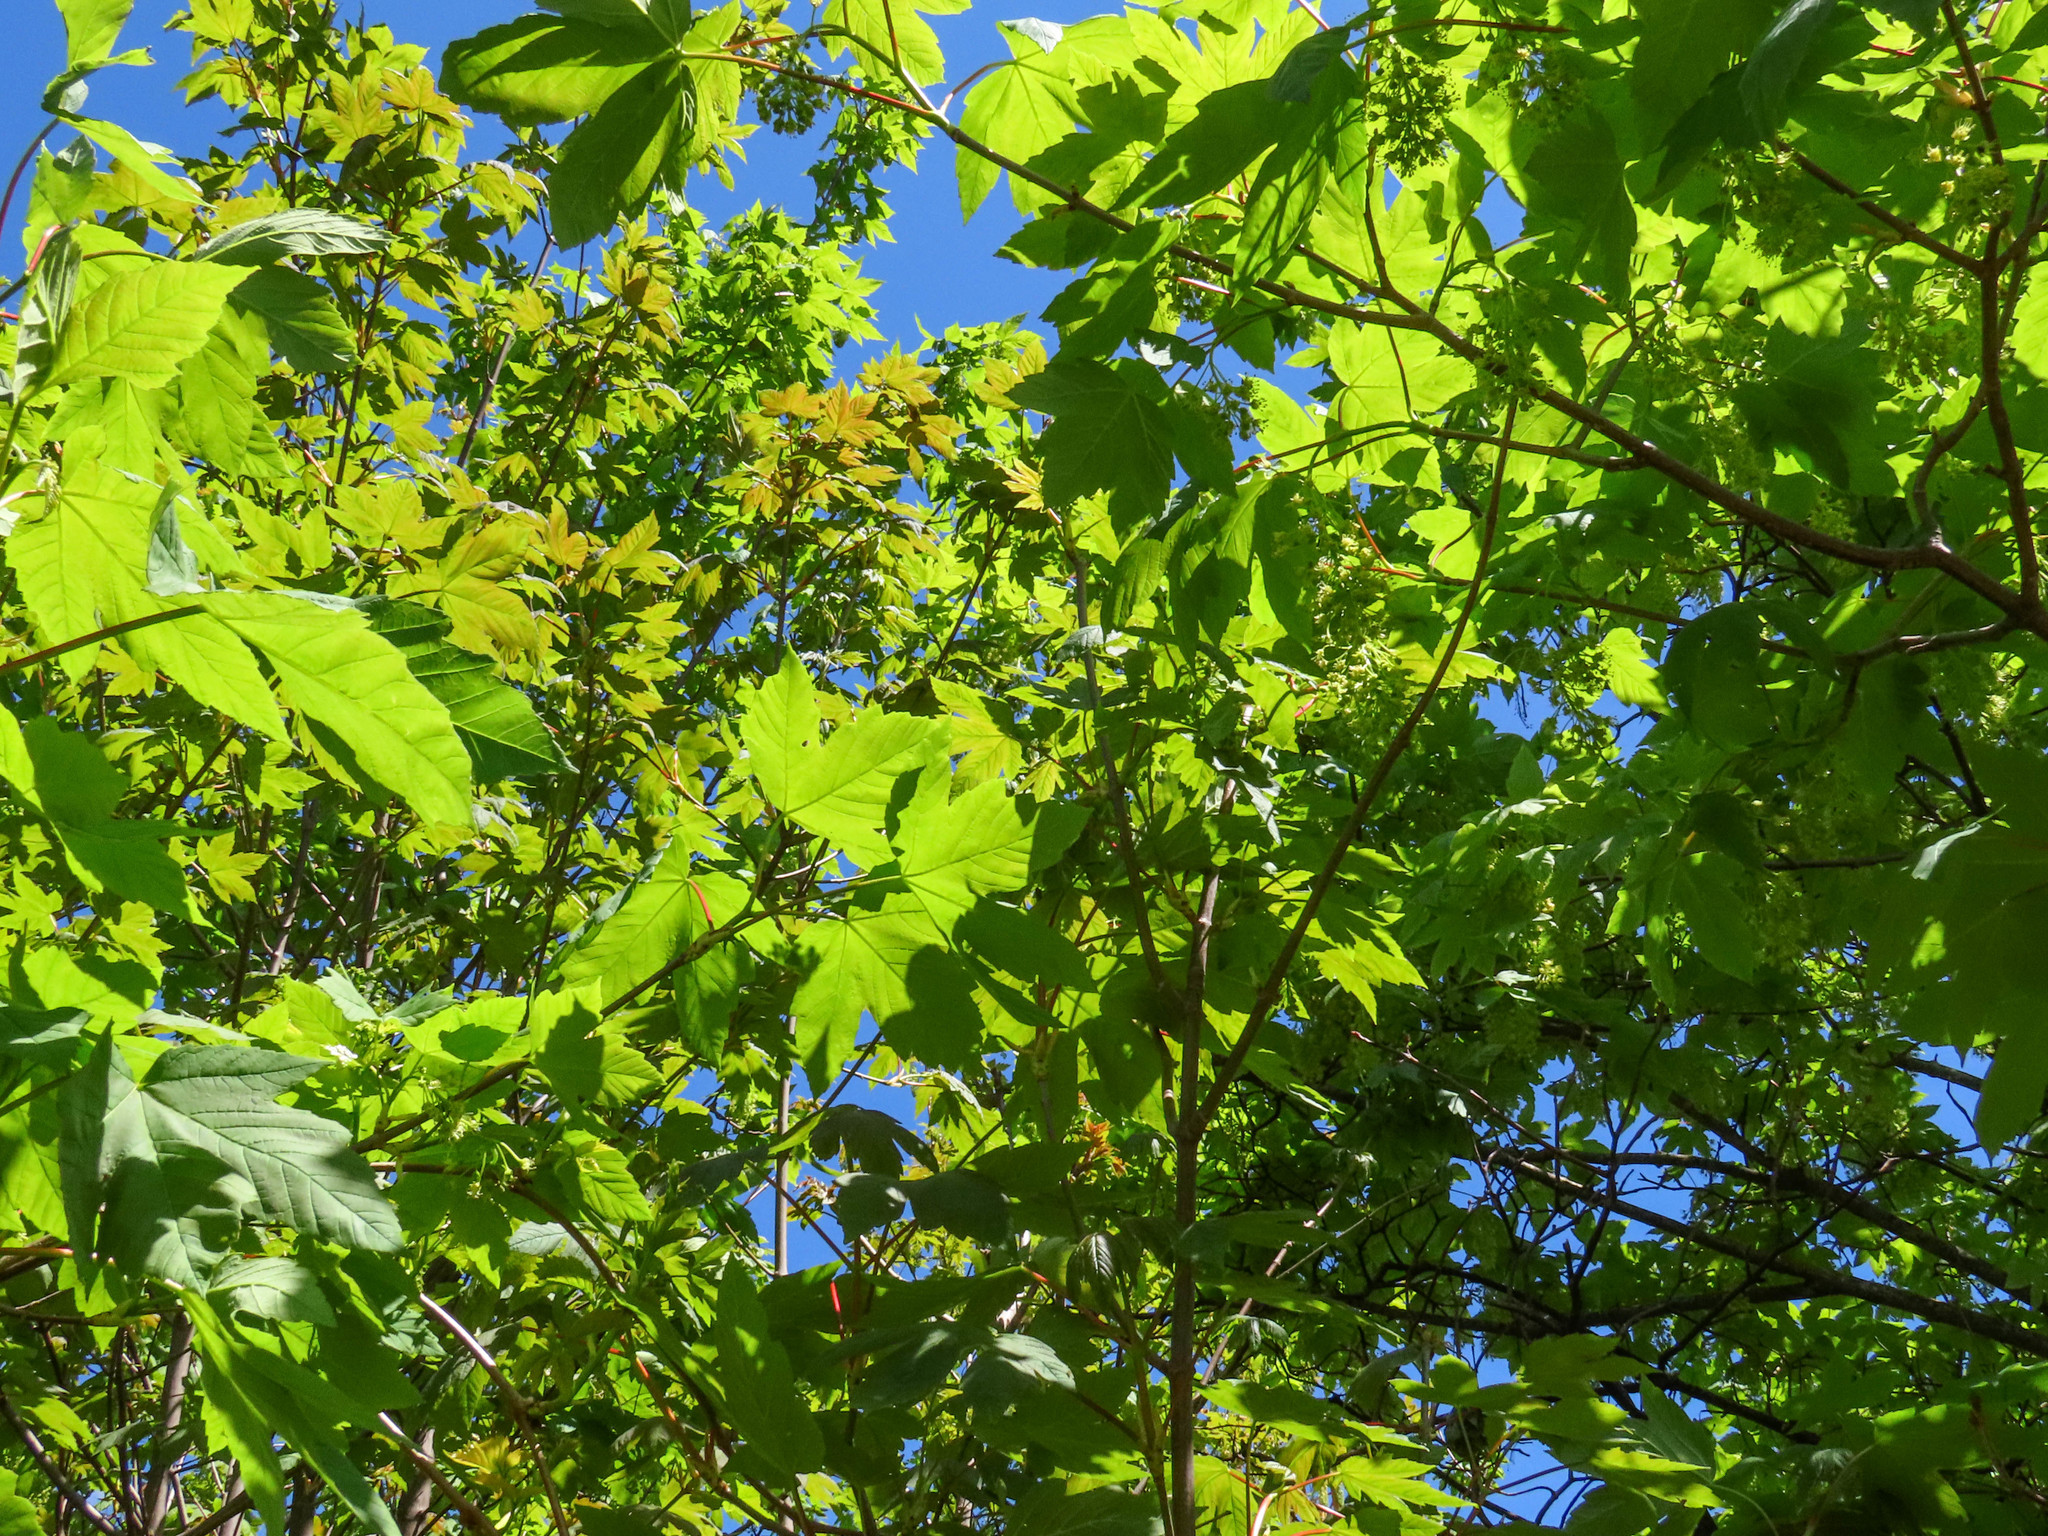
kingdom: Plantae
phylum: Tracheophyta
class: Magnoliopsida
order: Sapindales
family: Sapindaceae
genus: Acer
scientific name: Acer pseudoplatanus
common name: Sycamore
